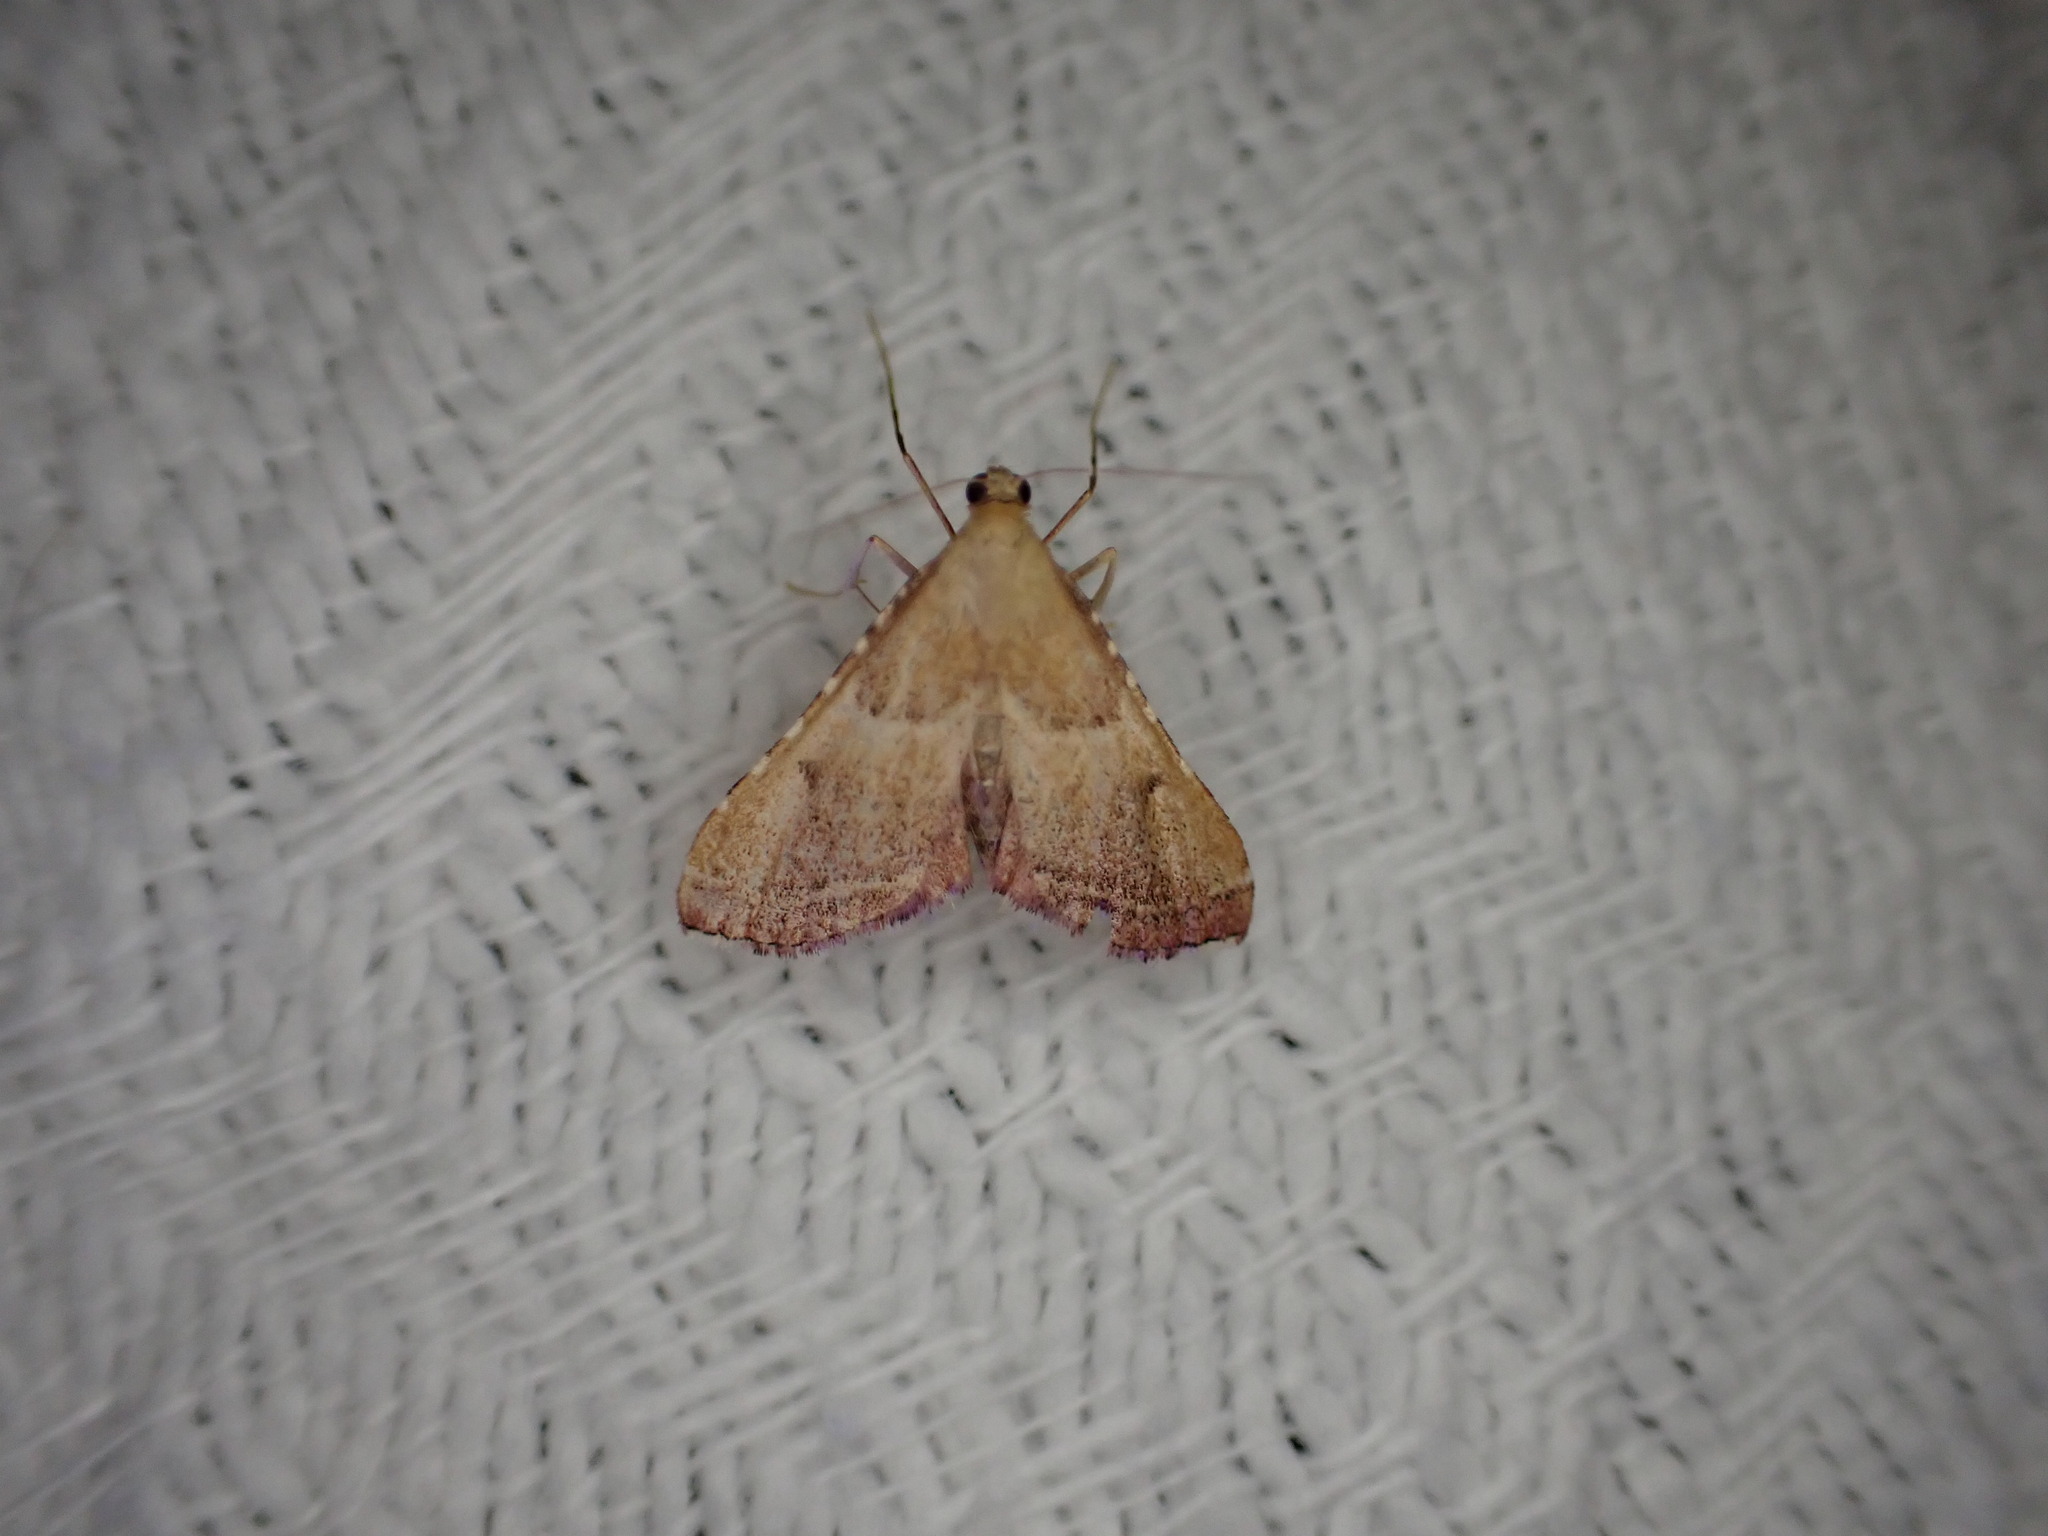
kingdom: Animalia
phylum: Arthropoda
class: Insecta
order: Lepidoptera
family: Pyralidae
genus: Endotricha
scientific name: Endotricha flammealis
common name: Rosy tabby
